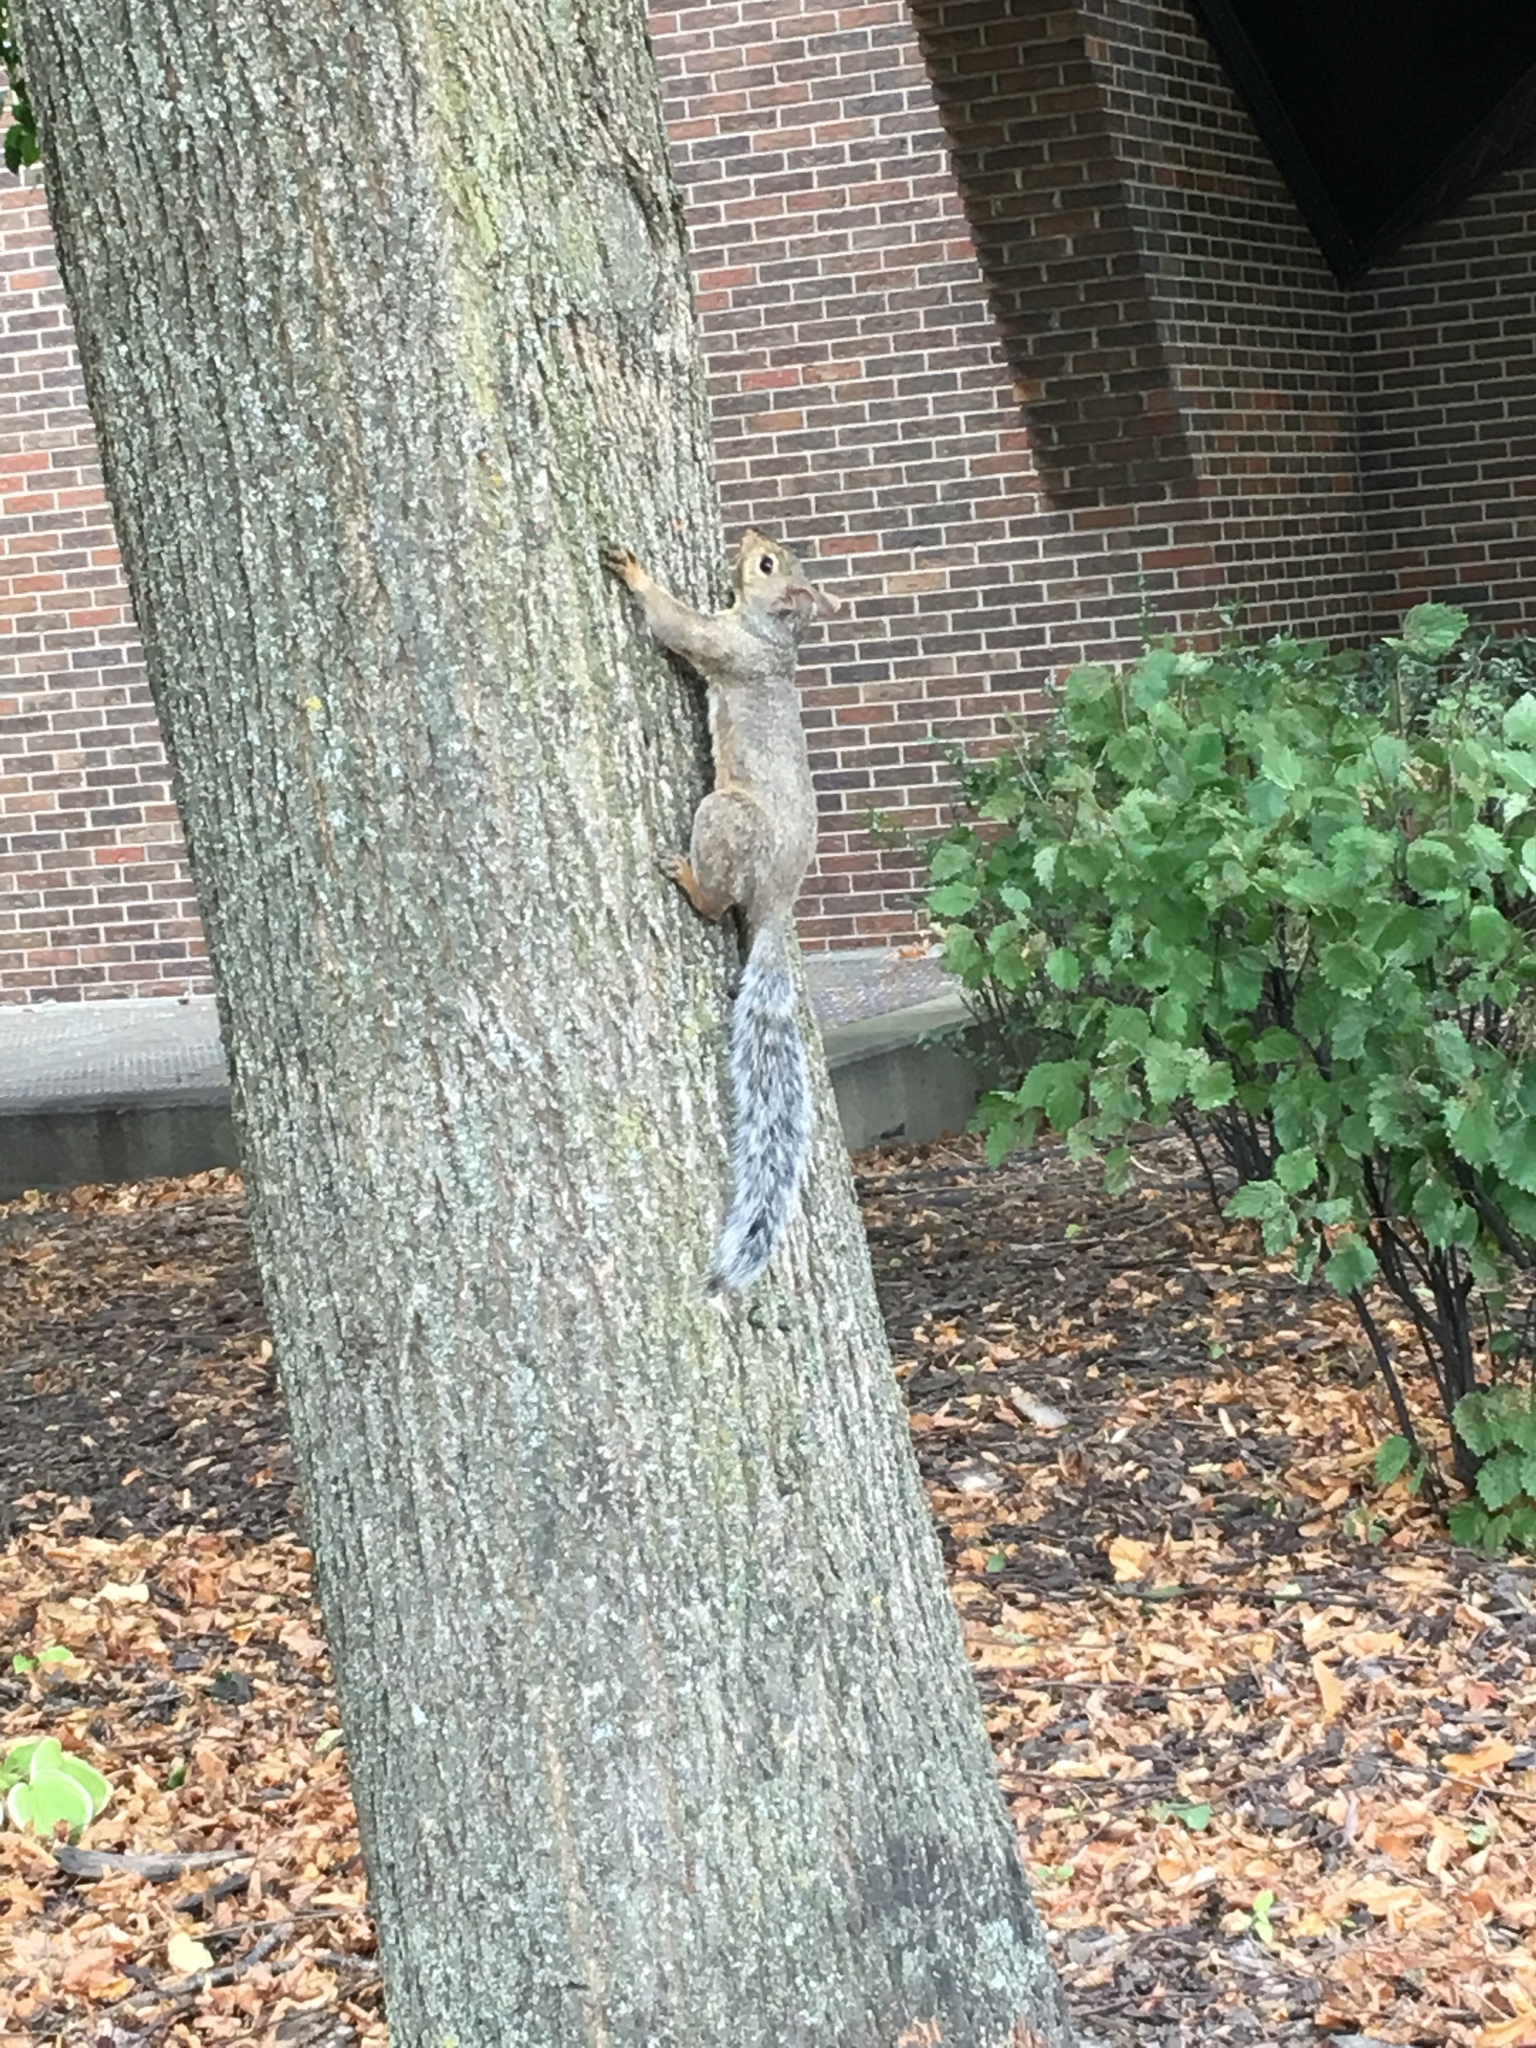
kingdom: Animalia
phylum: Chordata
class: Mammalia
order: Rodentia
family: Sciuridae
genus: Sciurus
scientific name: Sciurus carolinensis
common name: Eastern gray squirrel
